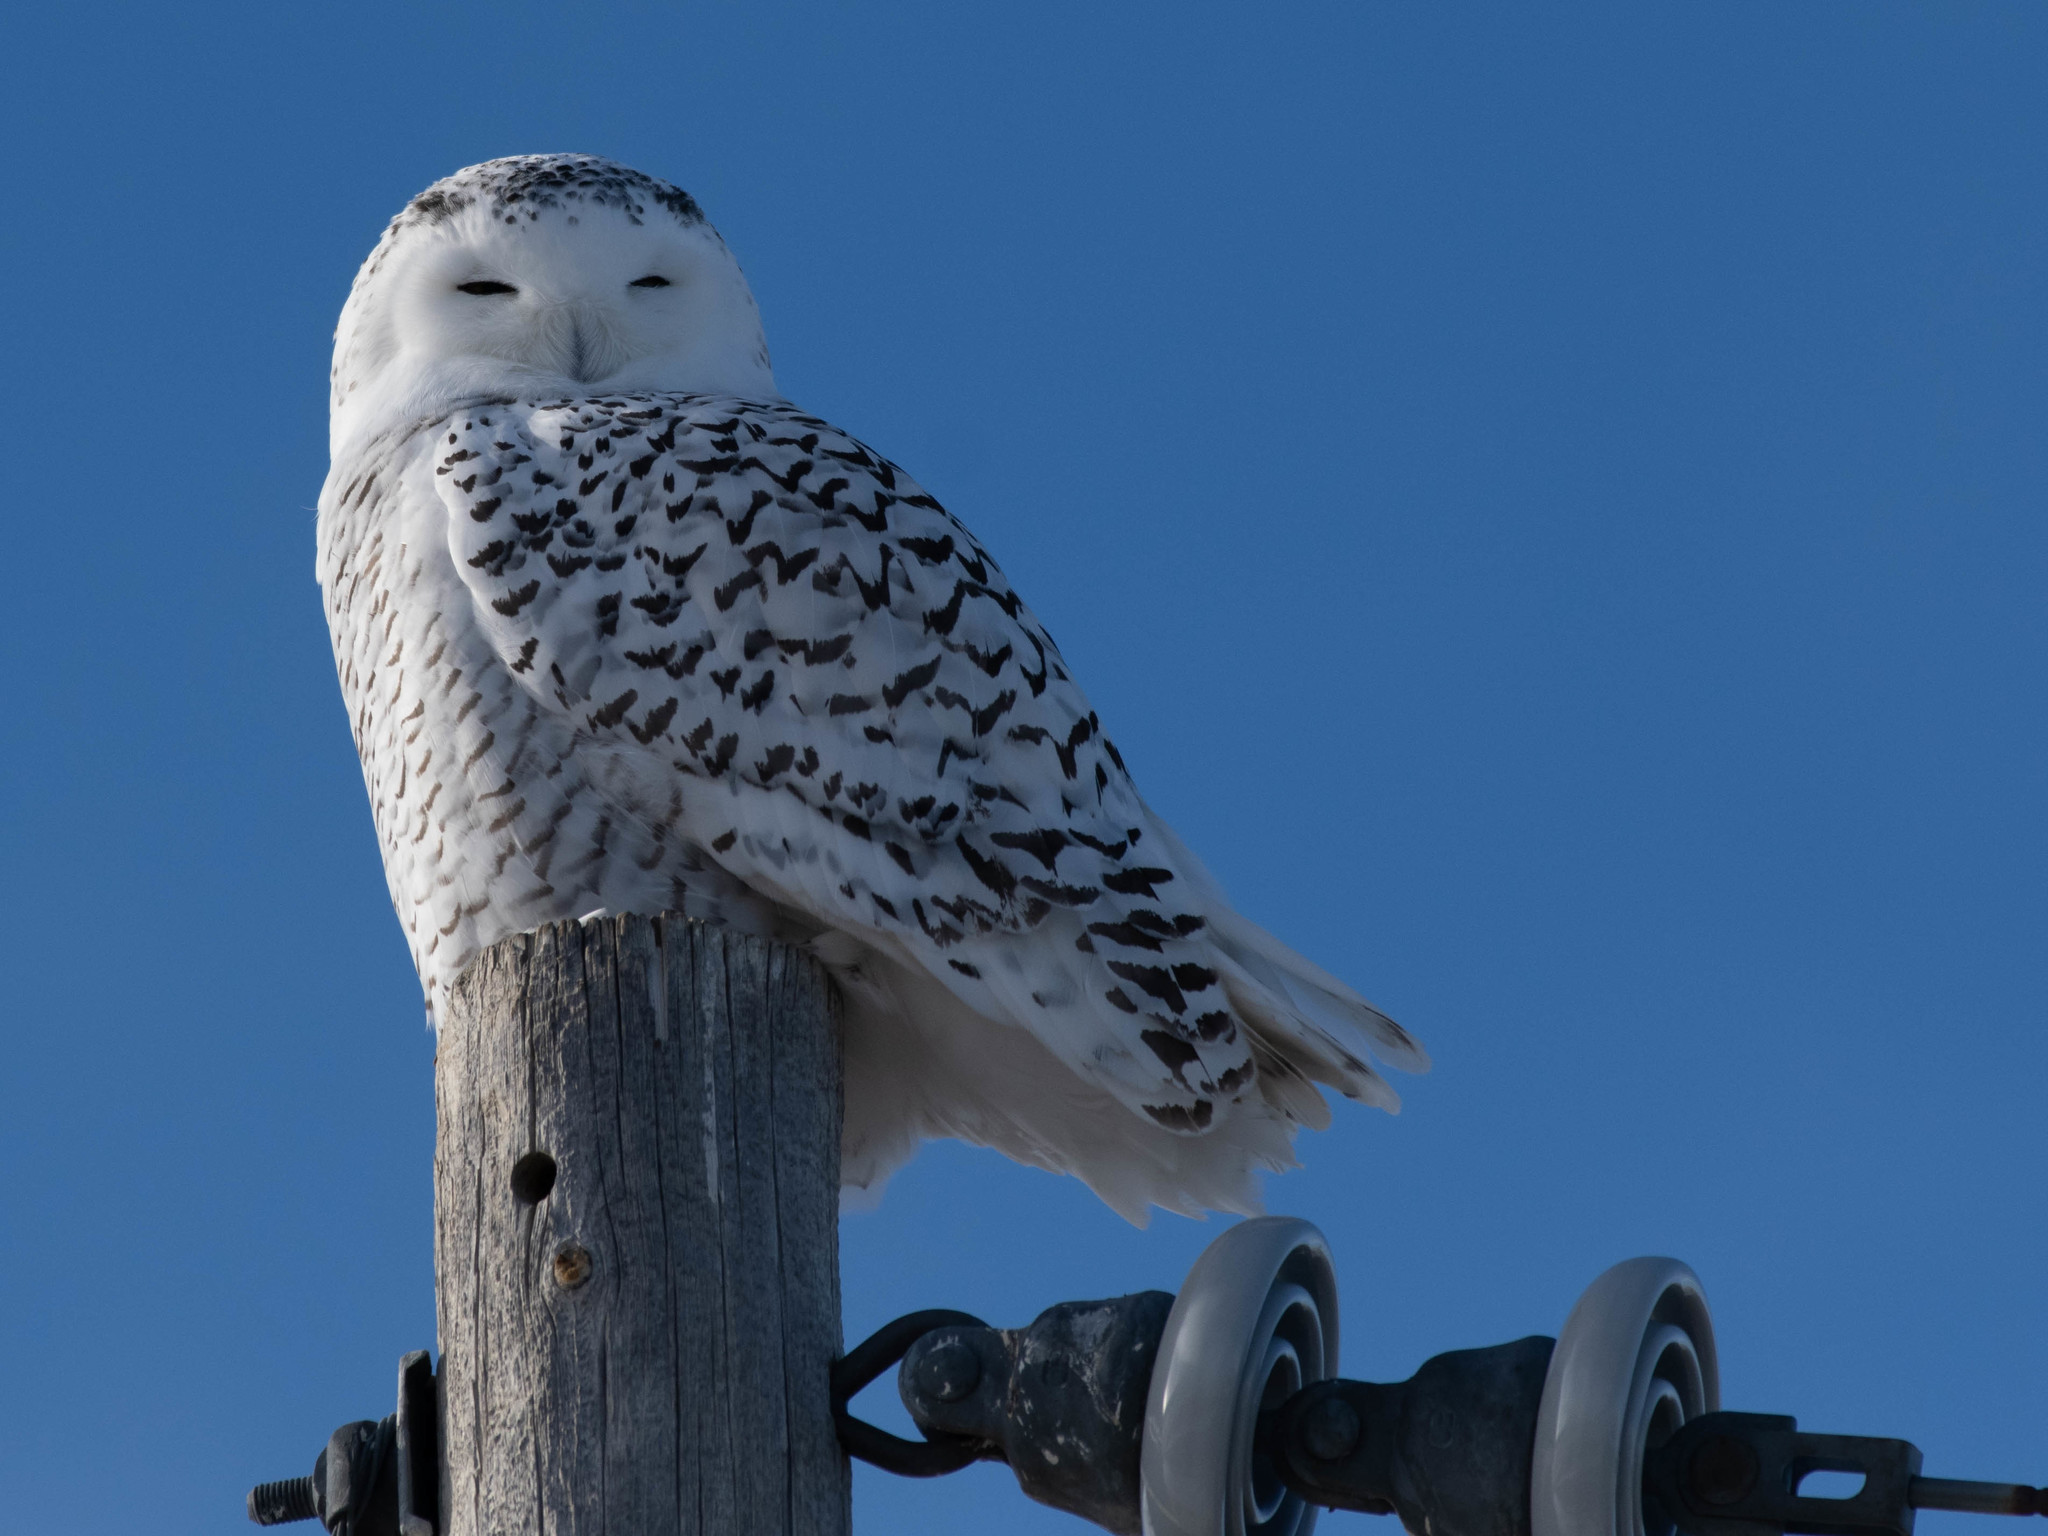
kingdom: Animalia
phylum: Chordata
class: Aves
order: Strigiformes
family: Strigidae
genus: Bubo
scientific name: Bubo scandiacus
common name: Snowy owl
